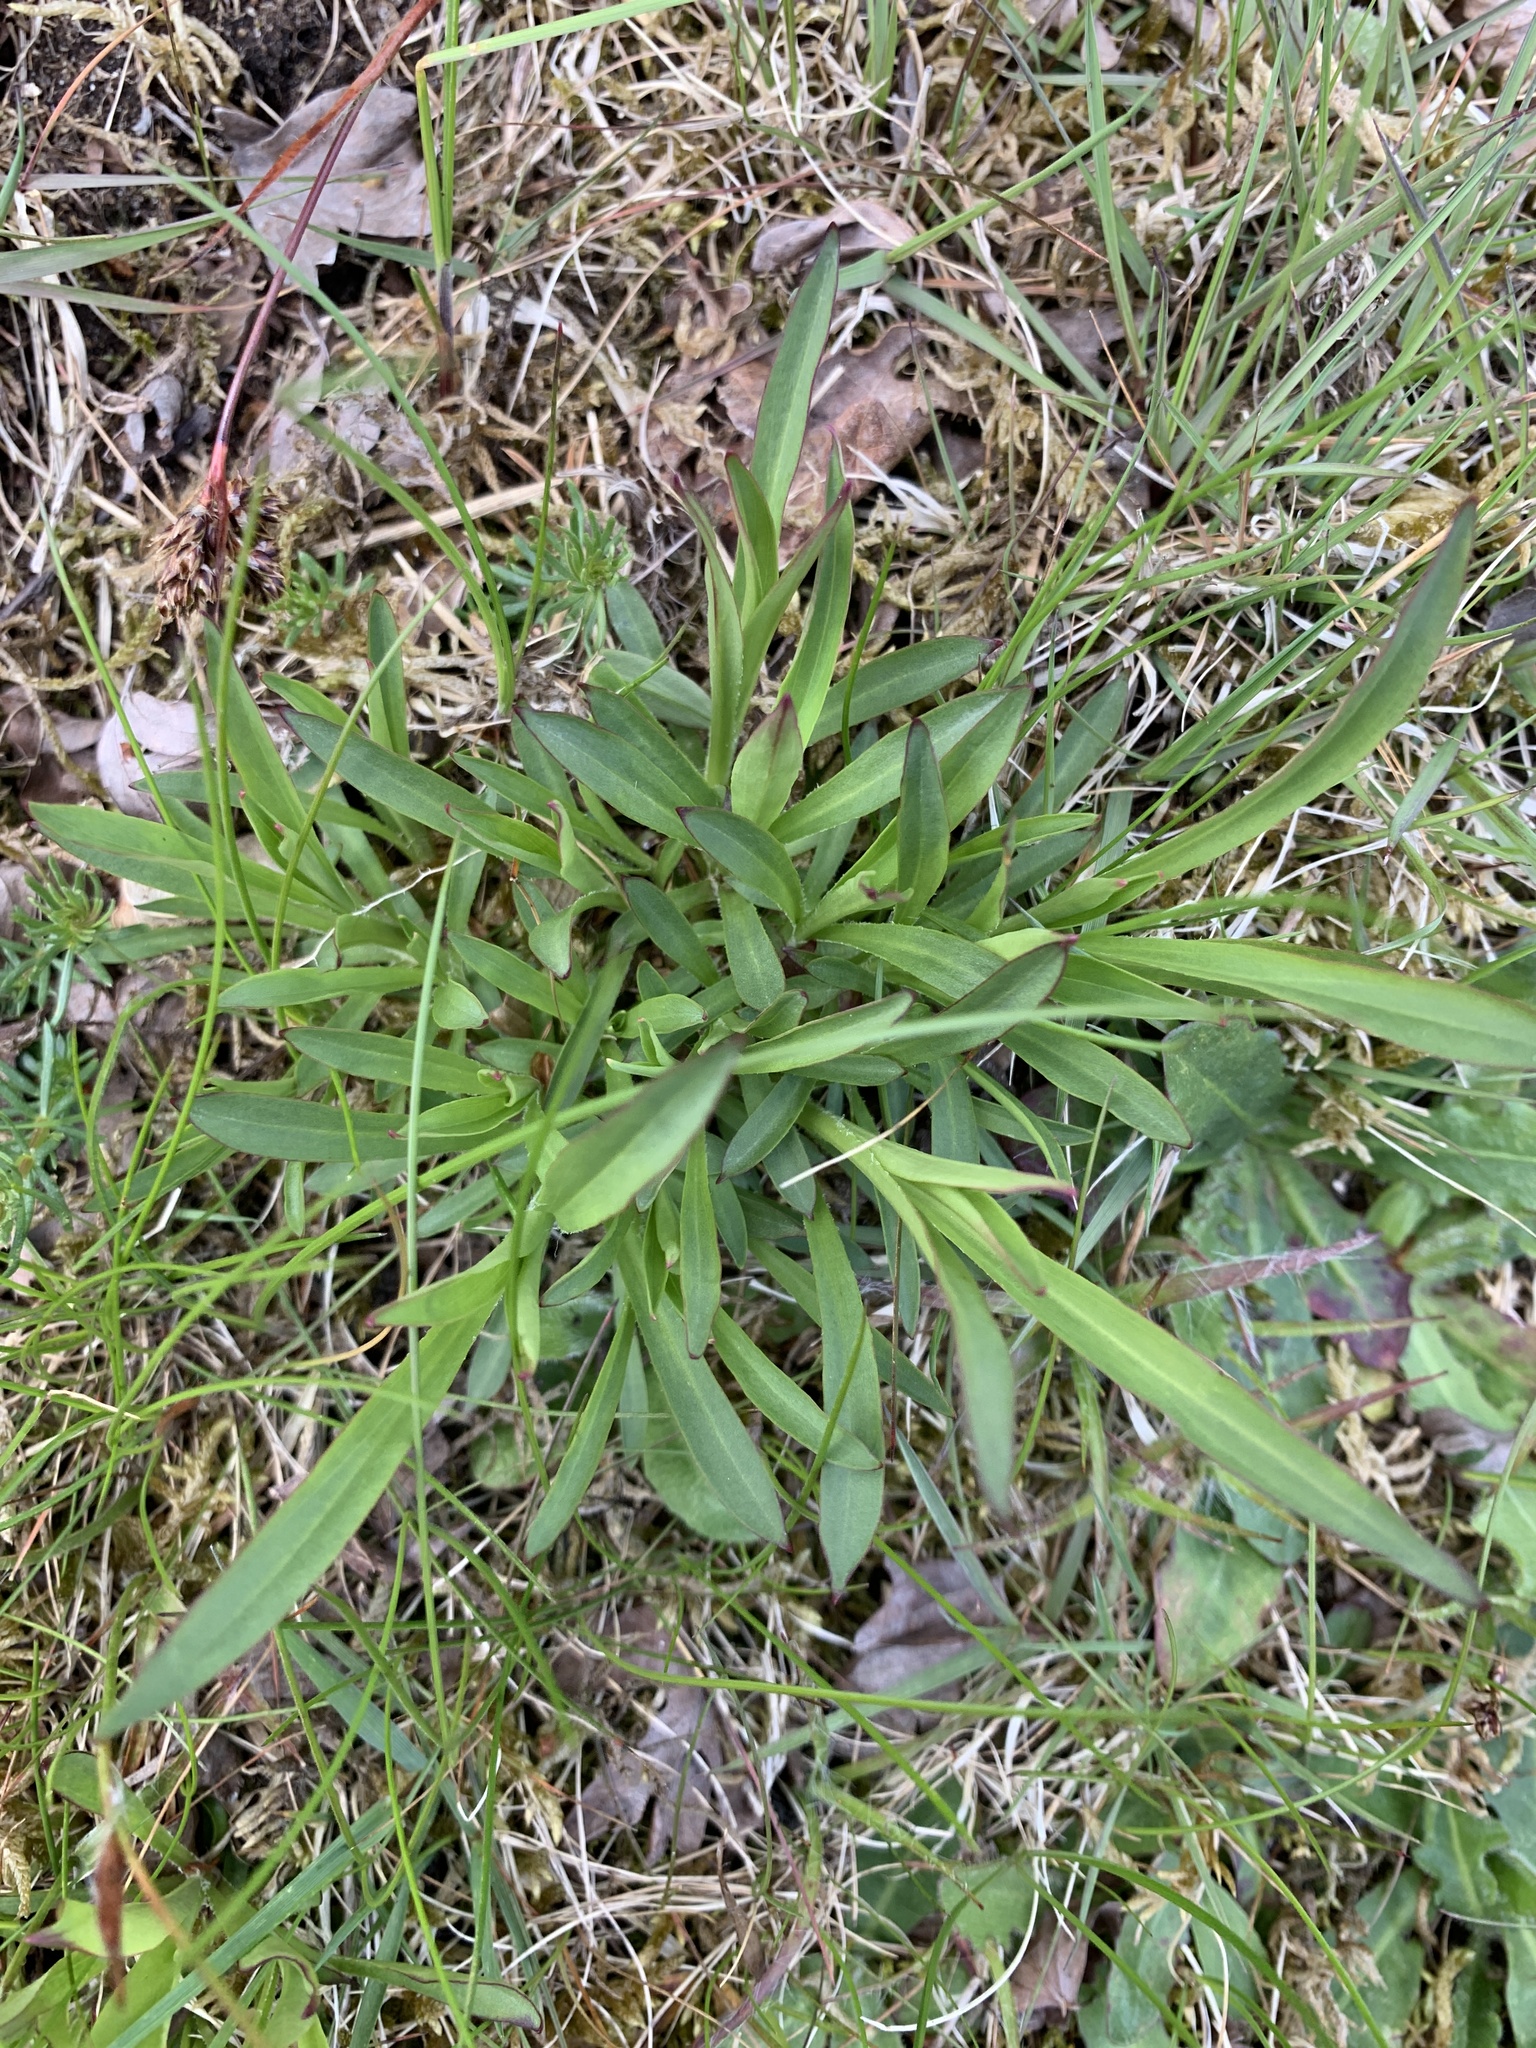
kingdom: Plantae
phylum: Tracheophyta
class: Magnoliopsida
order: Caryophyllales
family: Caryophyllaceae
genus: Viscaria
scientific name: Viscaria vulgaris
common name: Clammy campion
